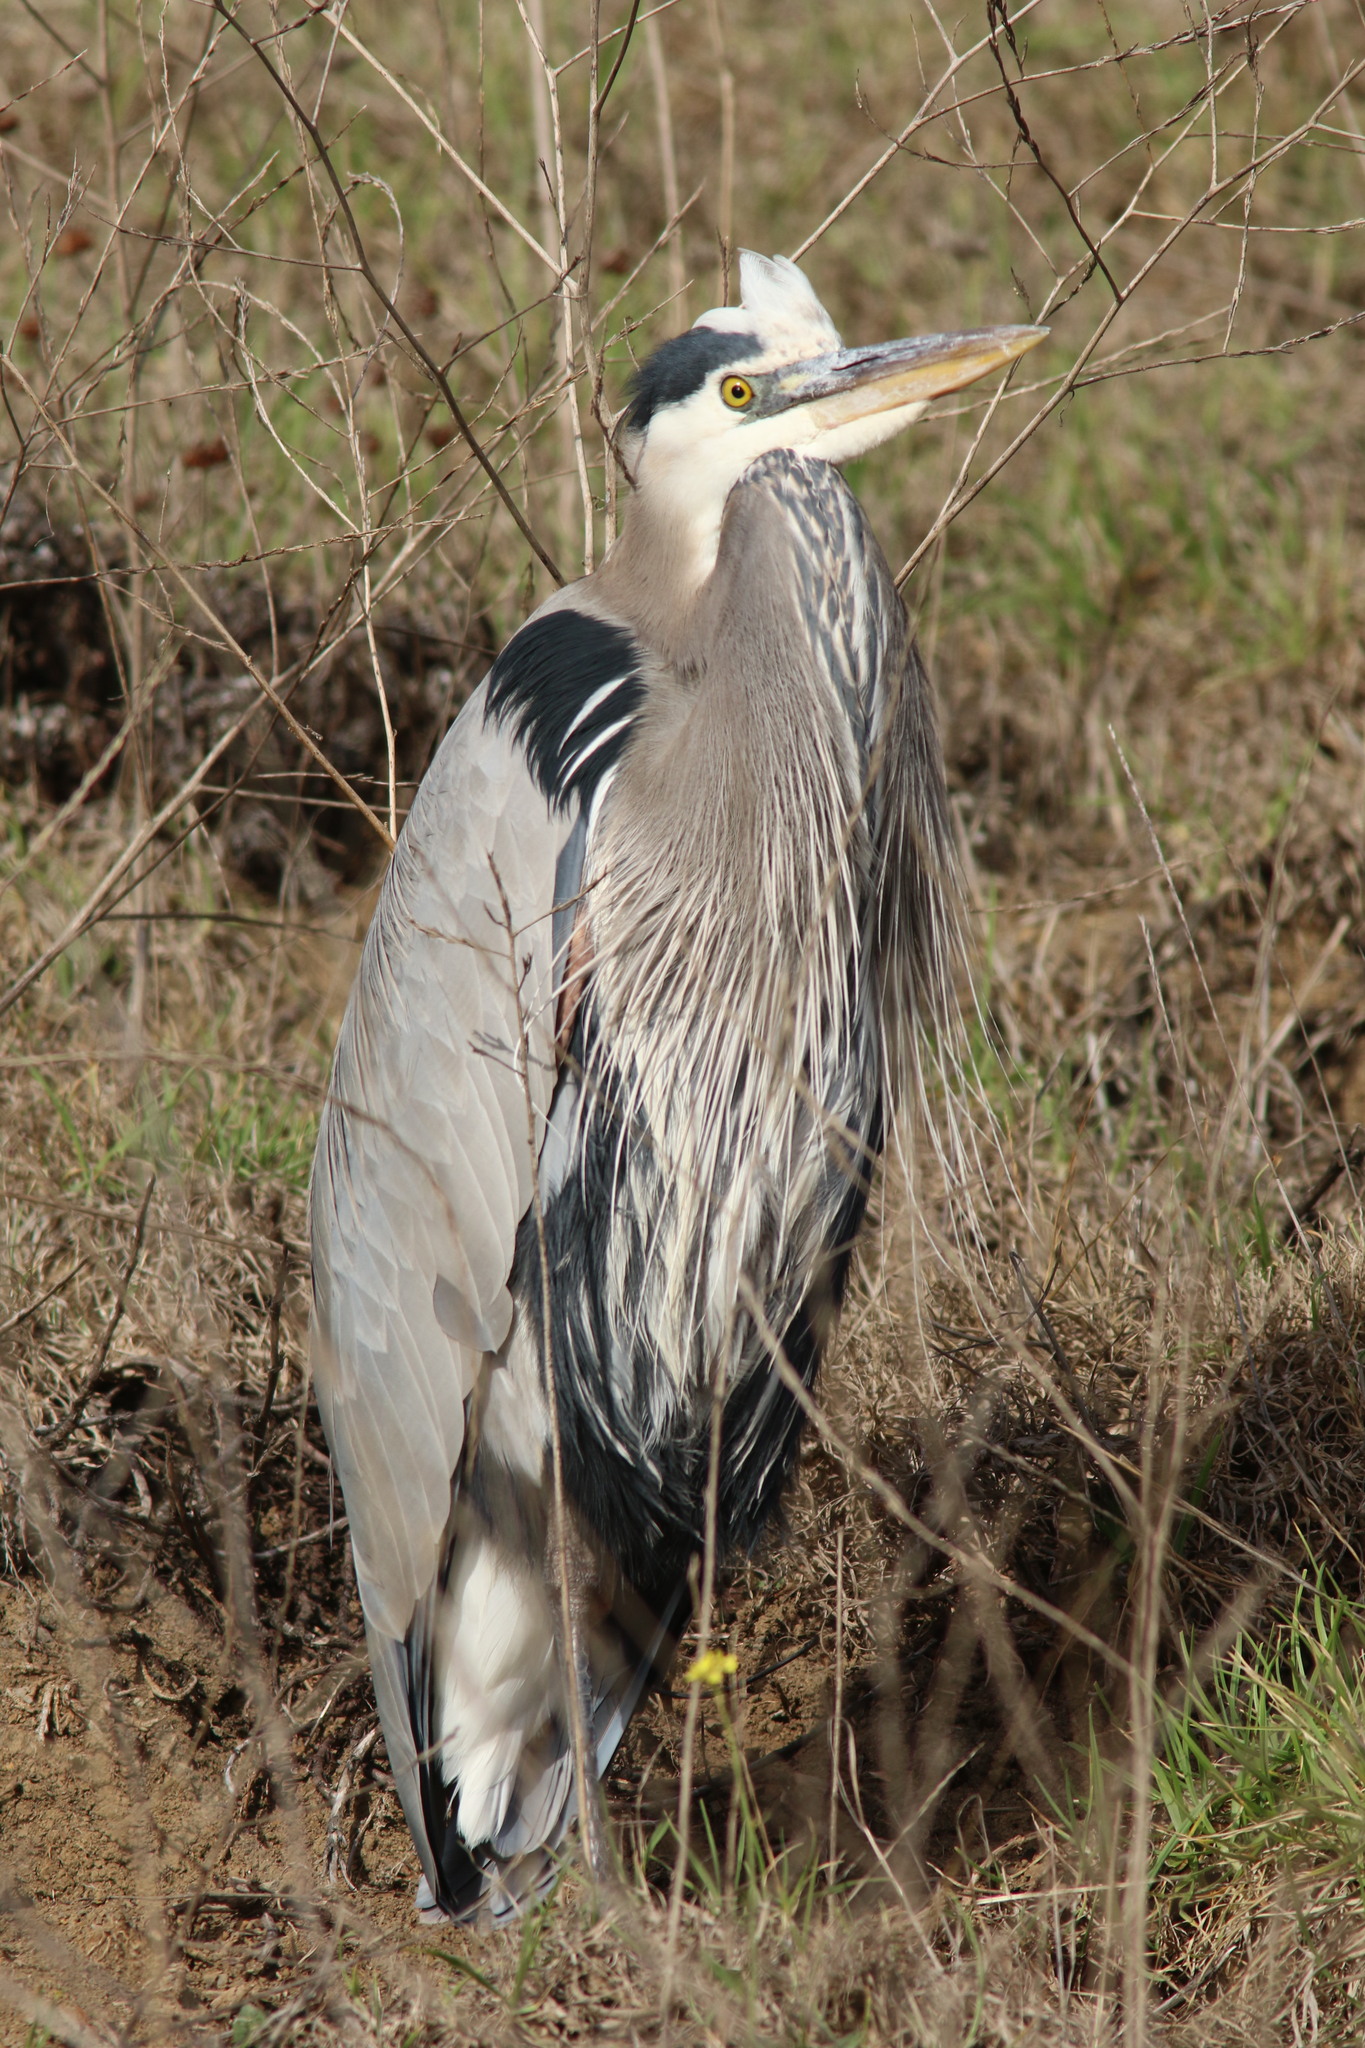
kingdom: Animalia
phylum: Chordata
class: Aves
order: Pelecaniformes
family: Ardeidae
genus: Ardea
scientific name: Ardea herodias
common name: Great blue heron
